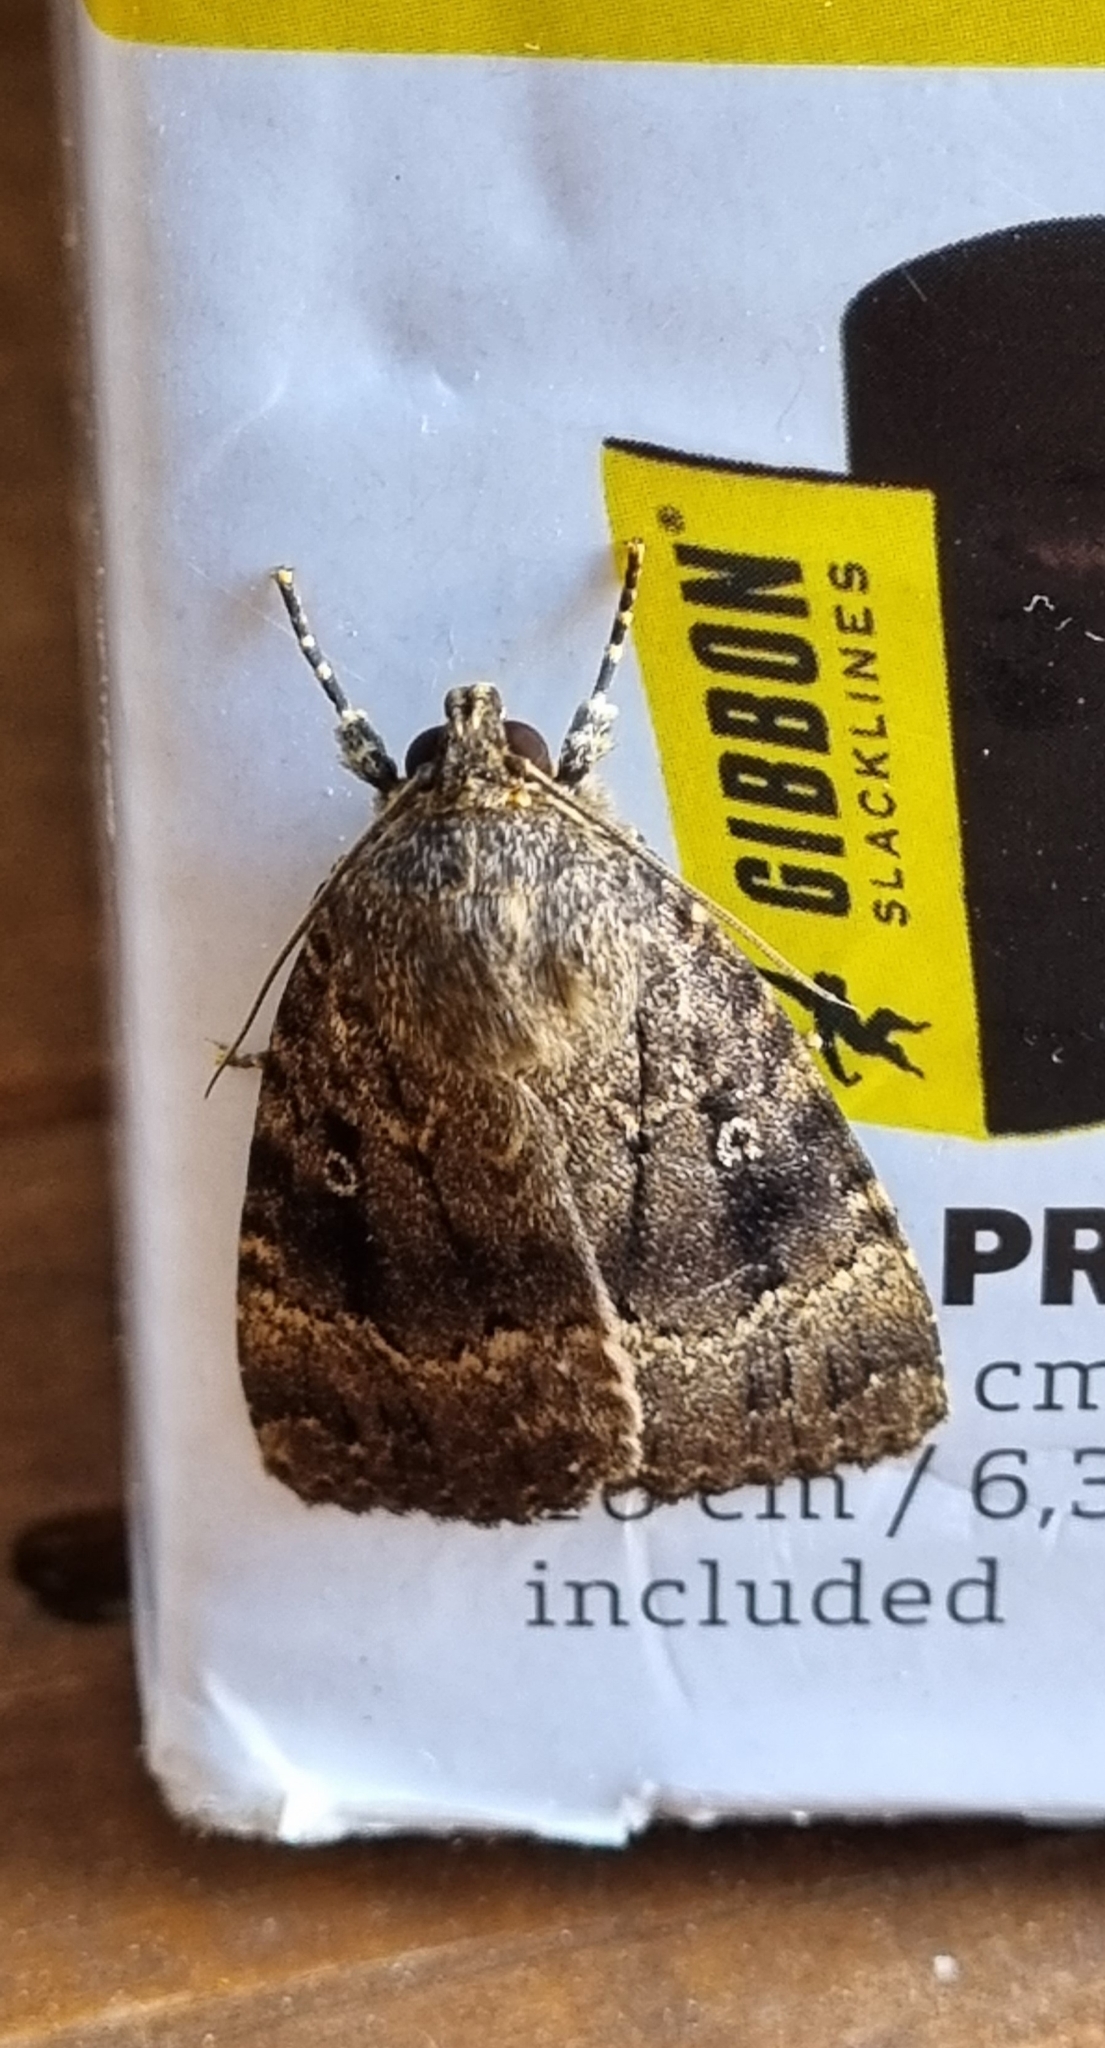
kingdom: Animalia
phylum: Arthropoda
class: Insecta
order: Lepidoptera
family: Noctuidae
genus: Amphipyra
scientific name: Amphipyra pyramidea
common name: Copper underwing
